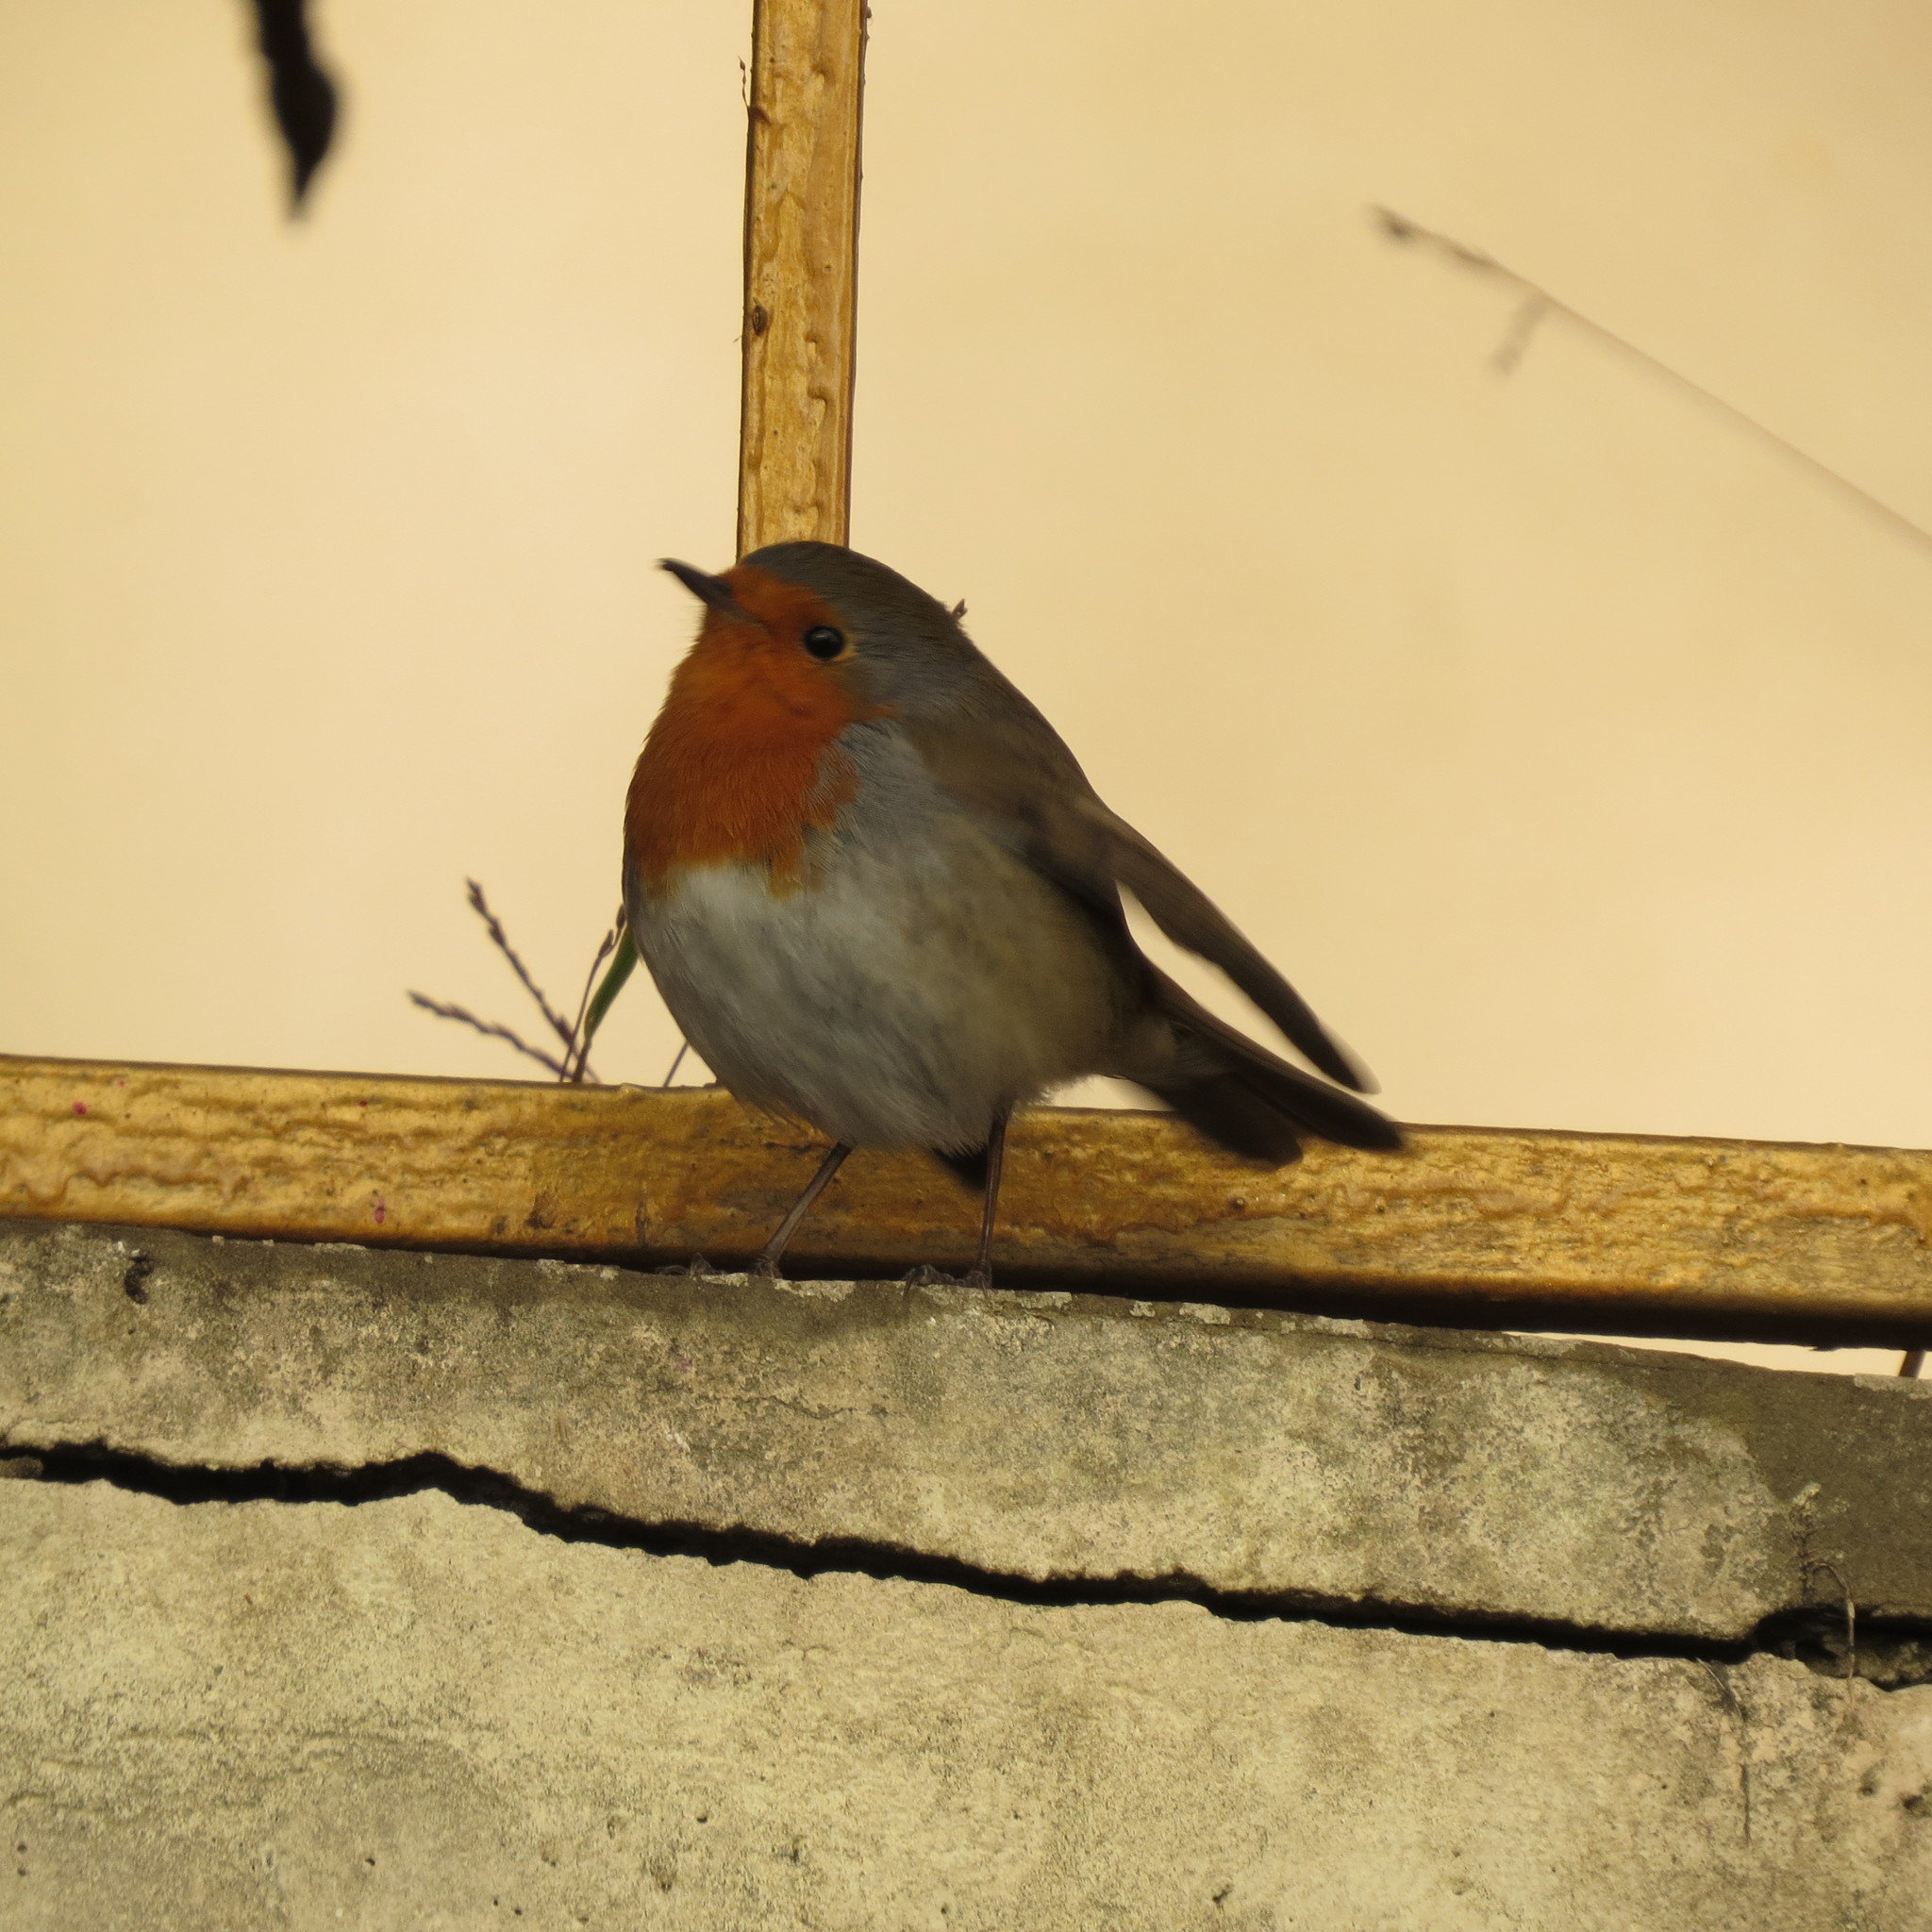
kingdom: Animalia
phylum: Chordata
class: Aves
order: Passeriformes
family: Muscicapidae
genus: Erithacus
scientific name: Erithacus rubecula
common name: European robin
